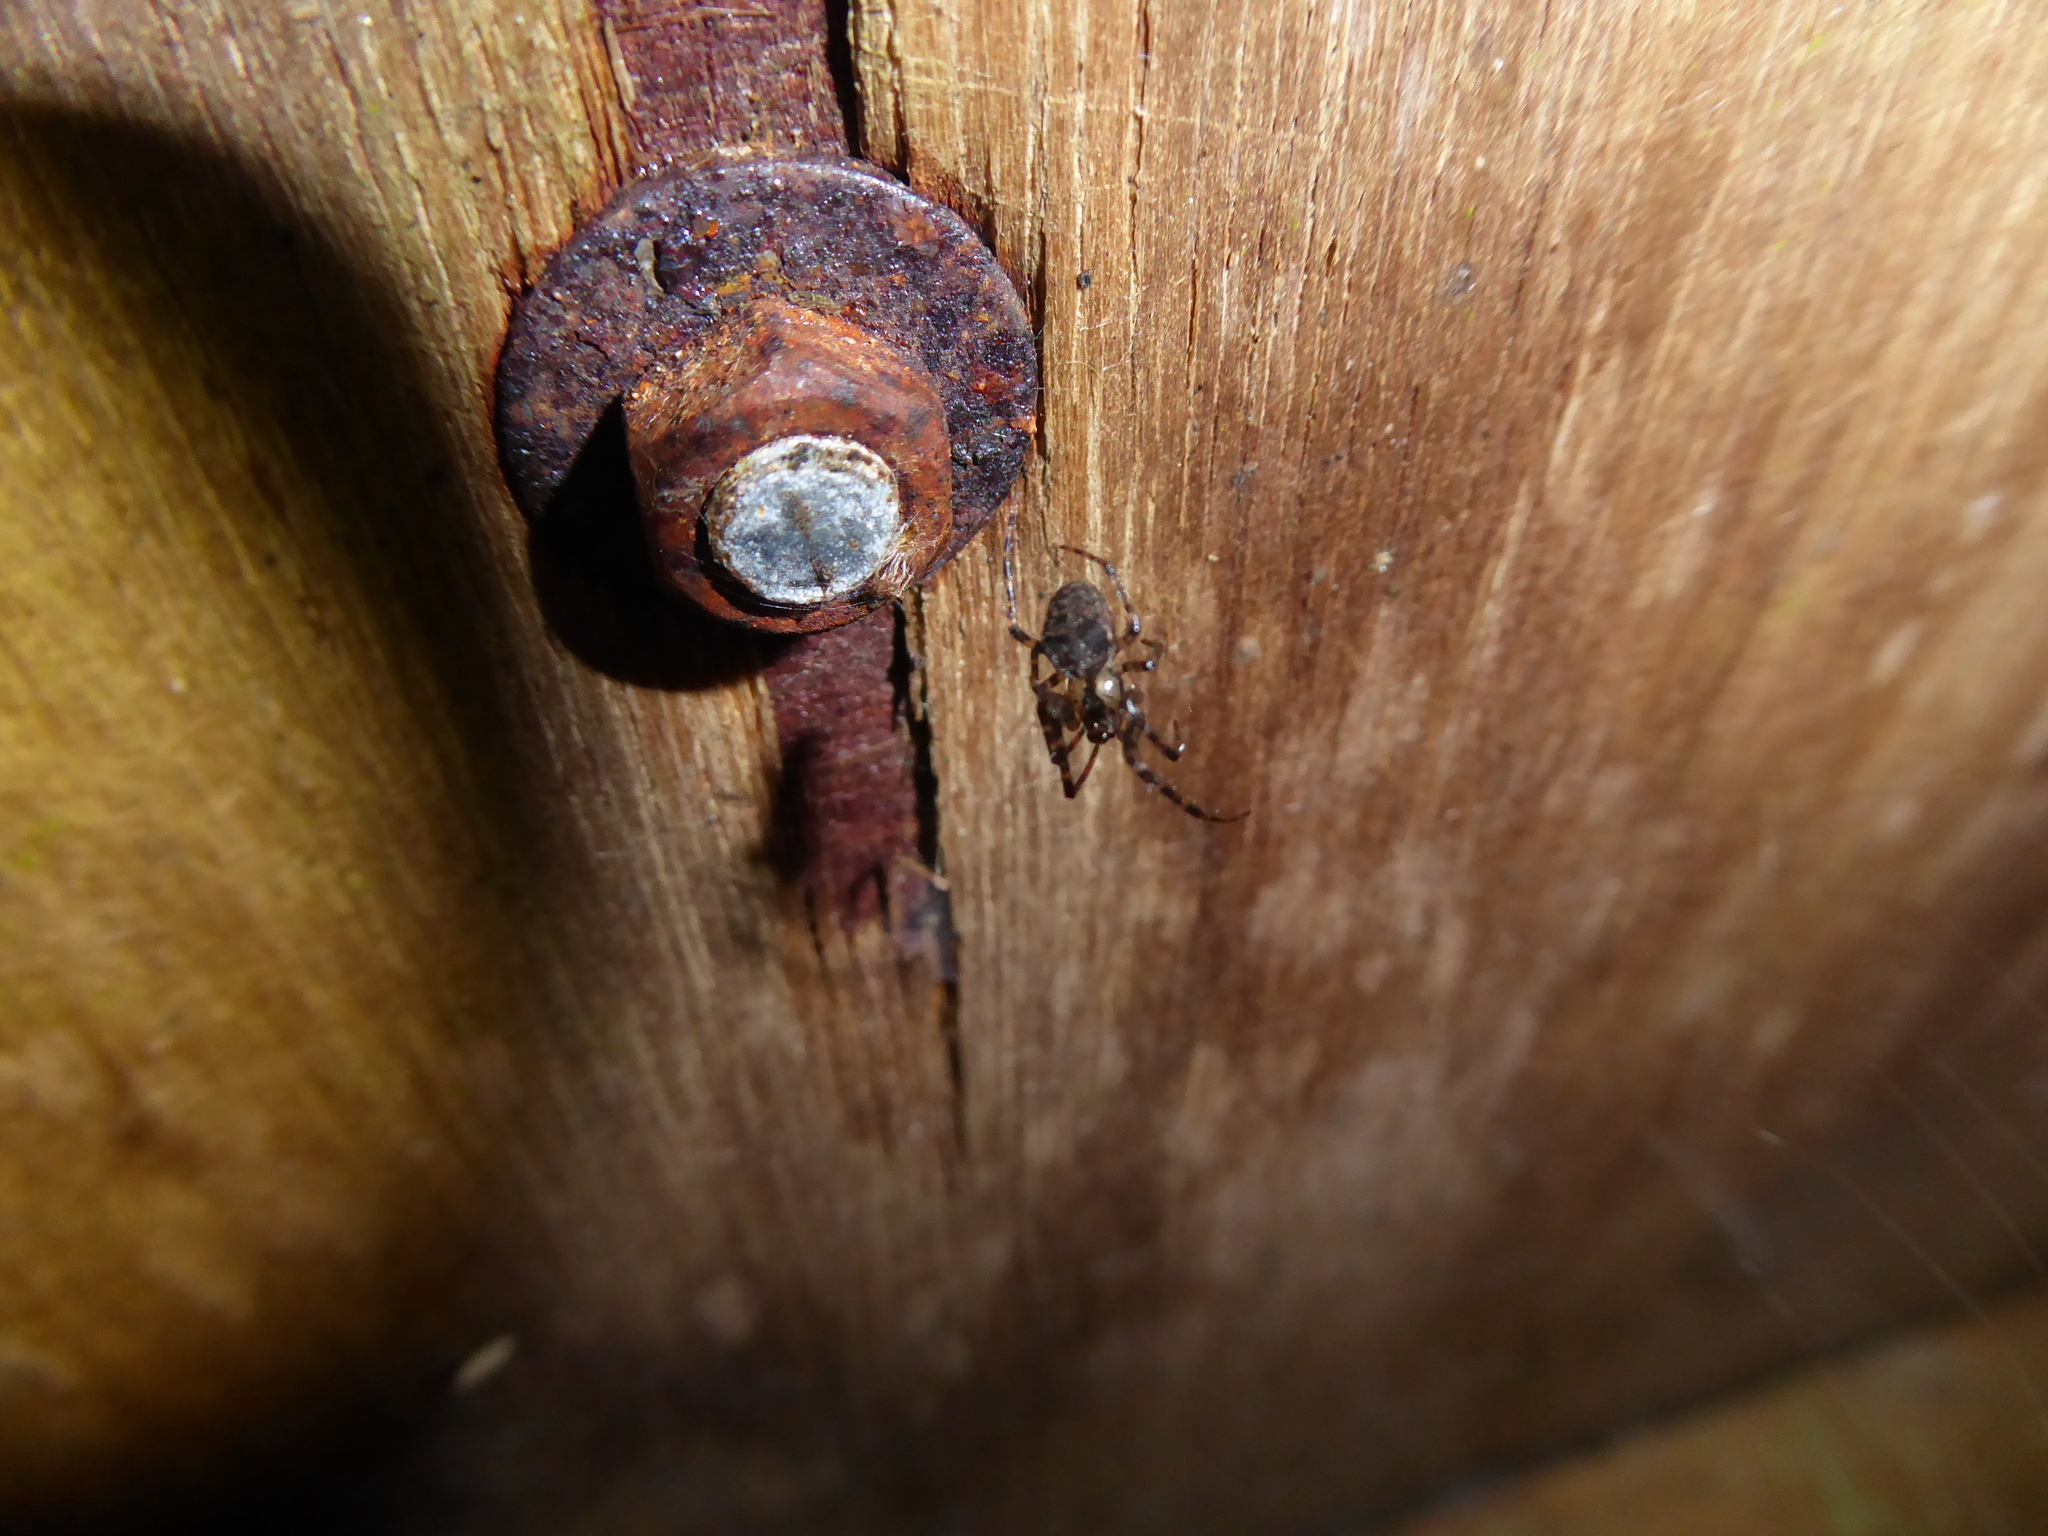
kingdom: Animalia
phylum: Arthropoda
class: Arachnida
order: Araneae
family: Tetragnathidae
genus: Metellina
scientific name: Metellina merianae
